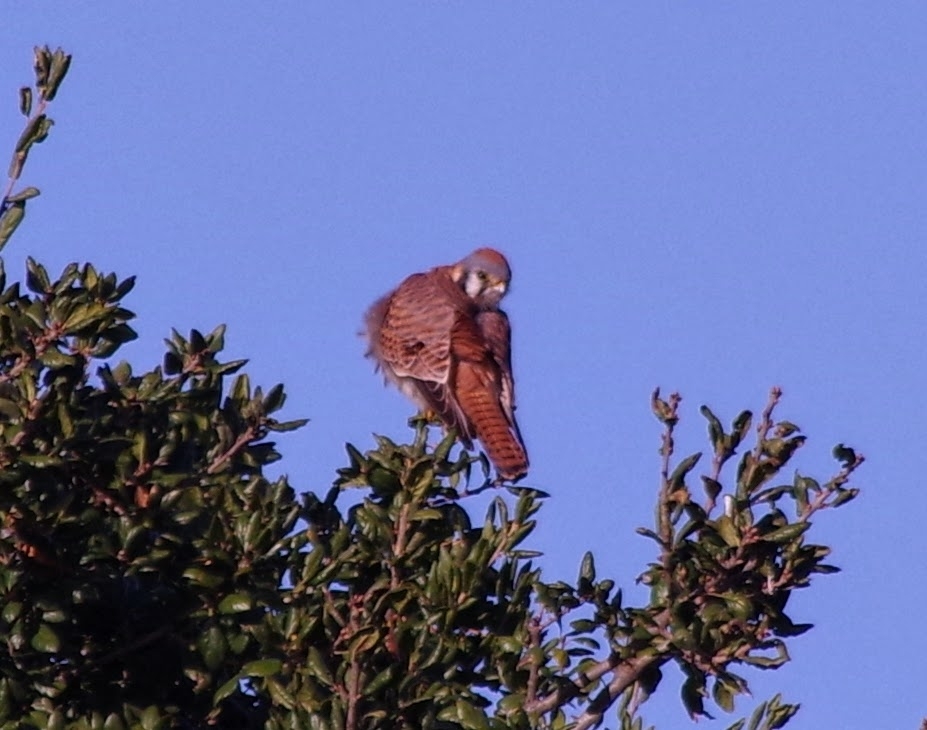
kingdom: Animalia
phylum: Chordata
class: Aves
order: Falconiformes
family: Falconidae
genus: Falco
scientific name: Falco sparverius
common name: American kestrel
